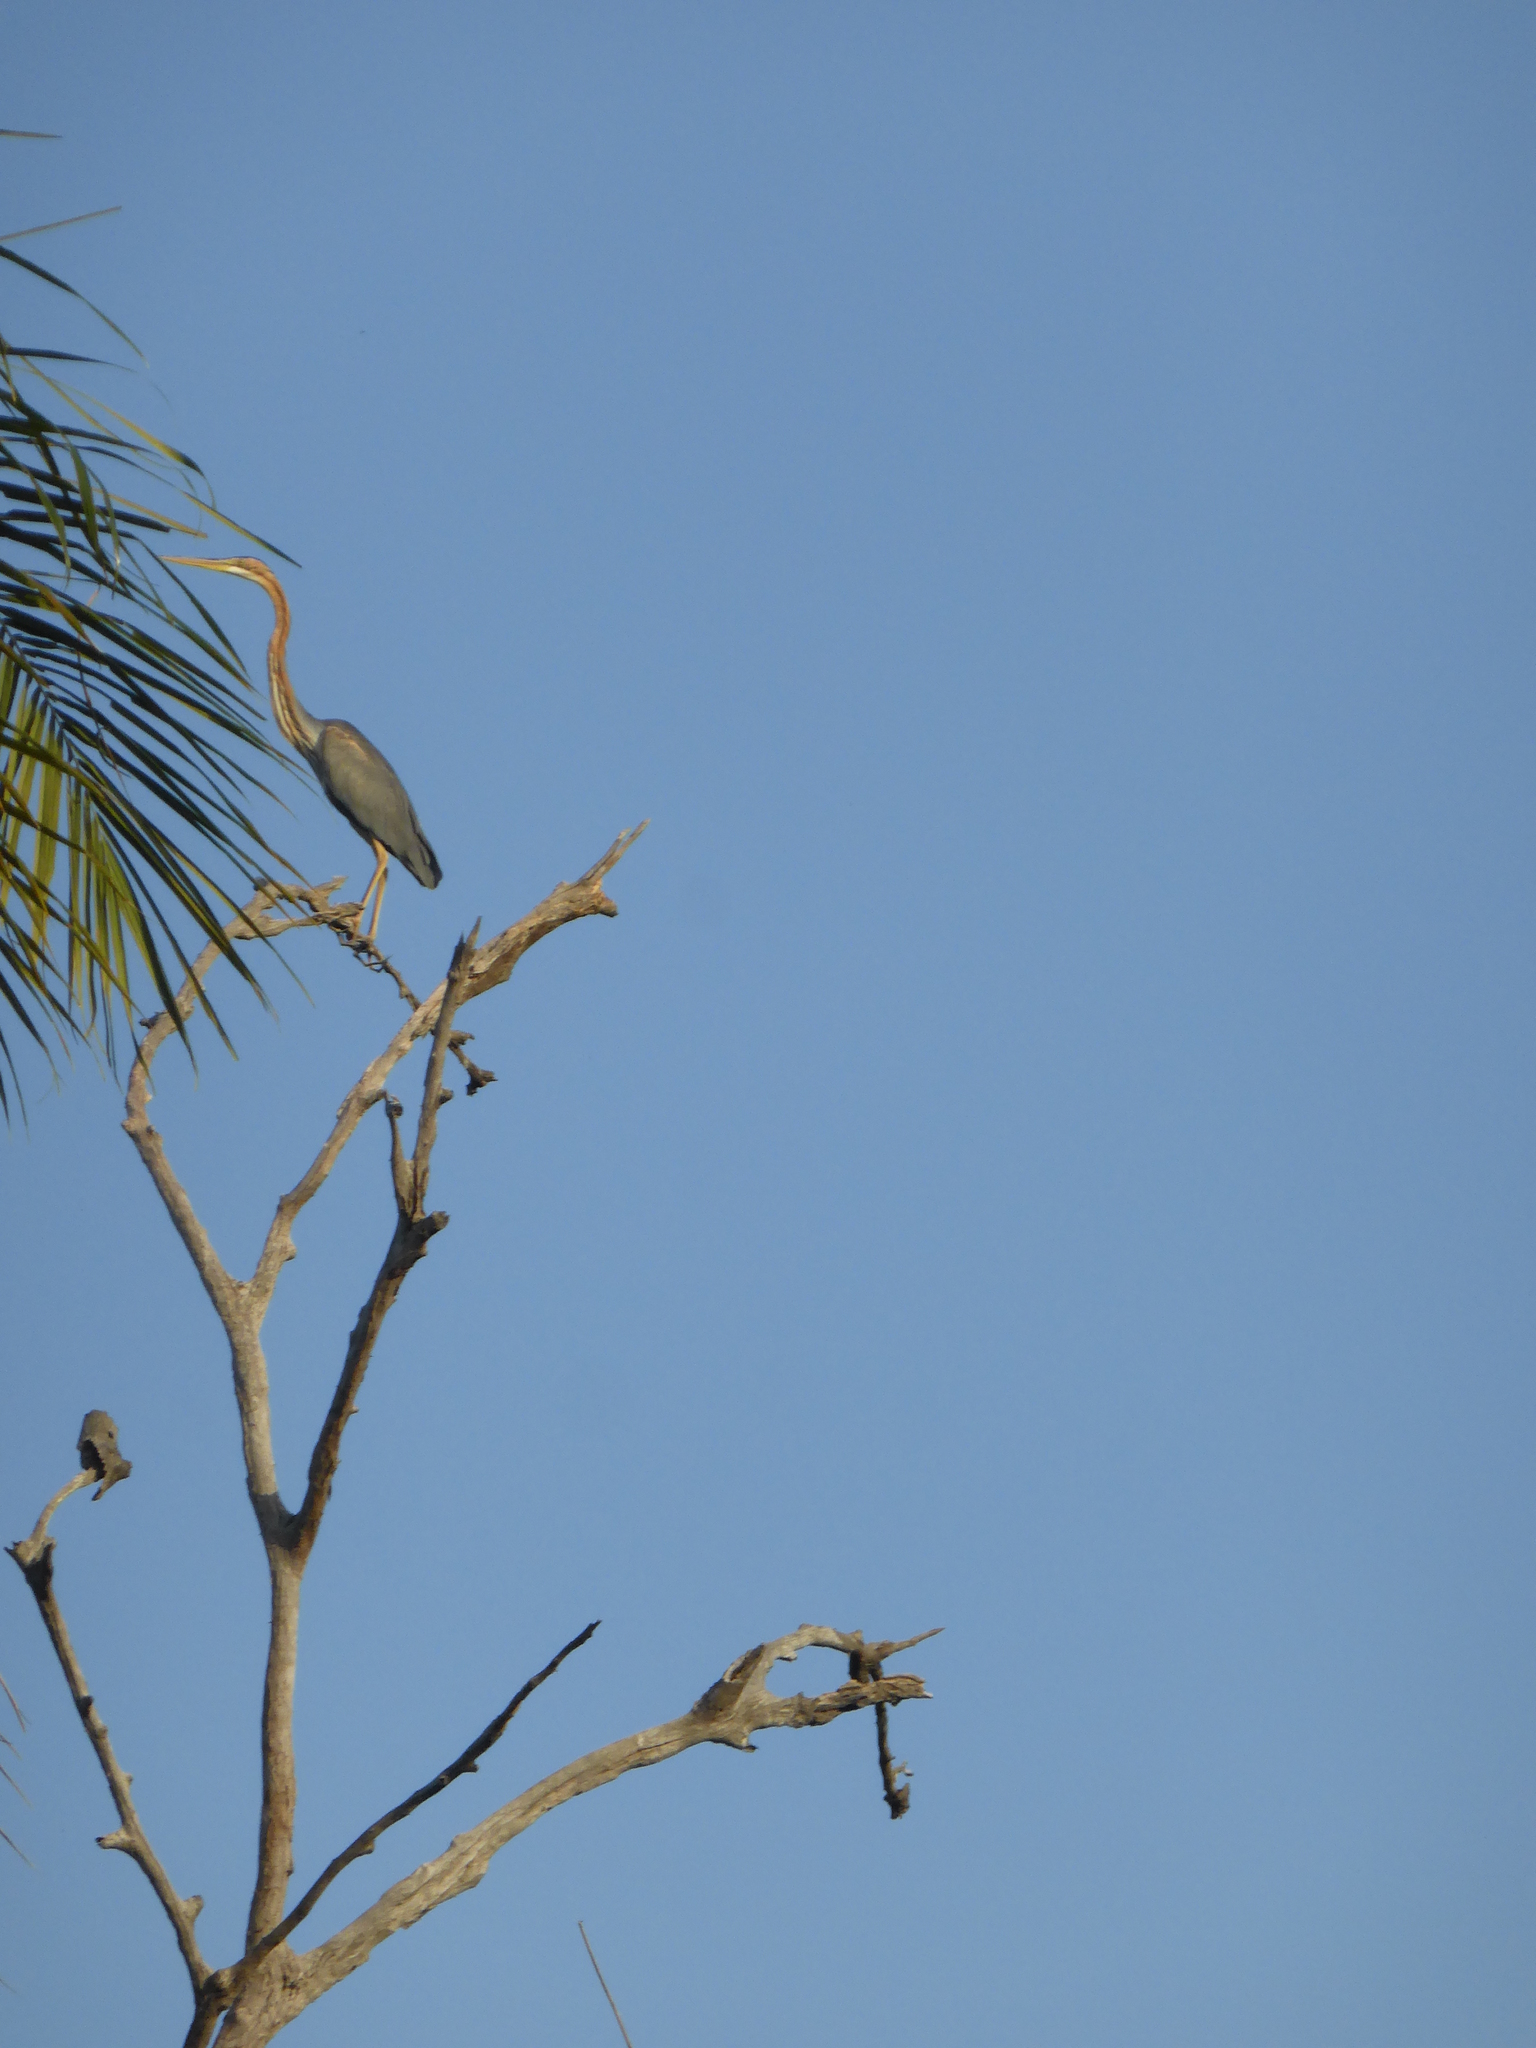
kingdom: Animalia
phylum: Chordata
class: Aves
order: Pelecaniformes
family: Ardeidae
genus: Ardea
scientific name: Ardea purpurea
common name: Purple heron
